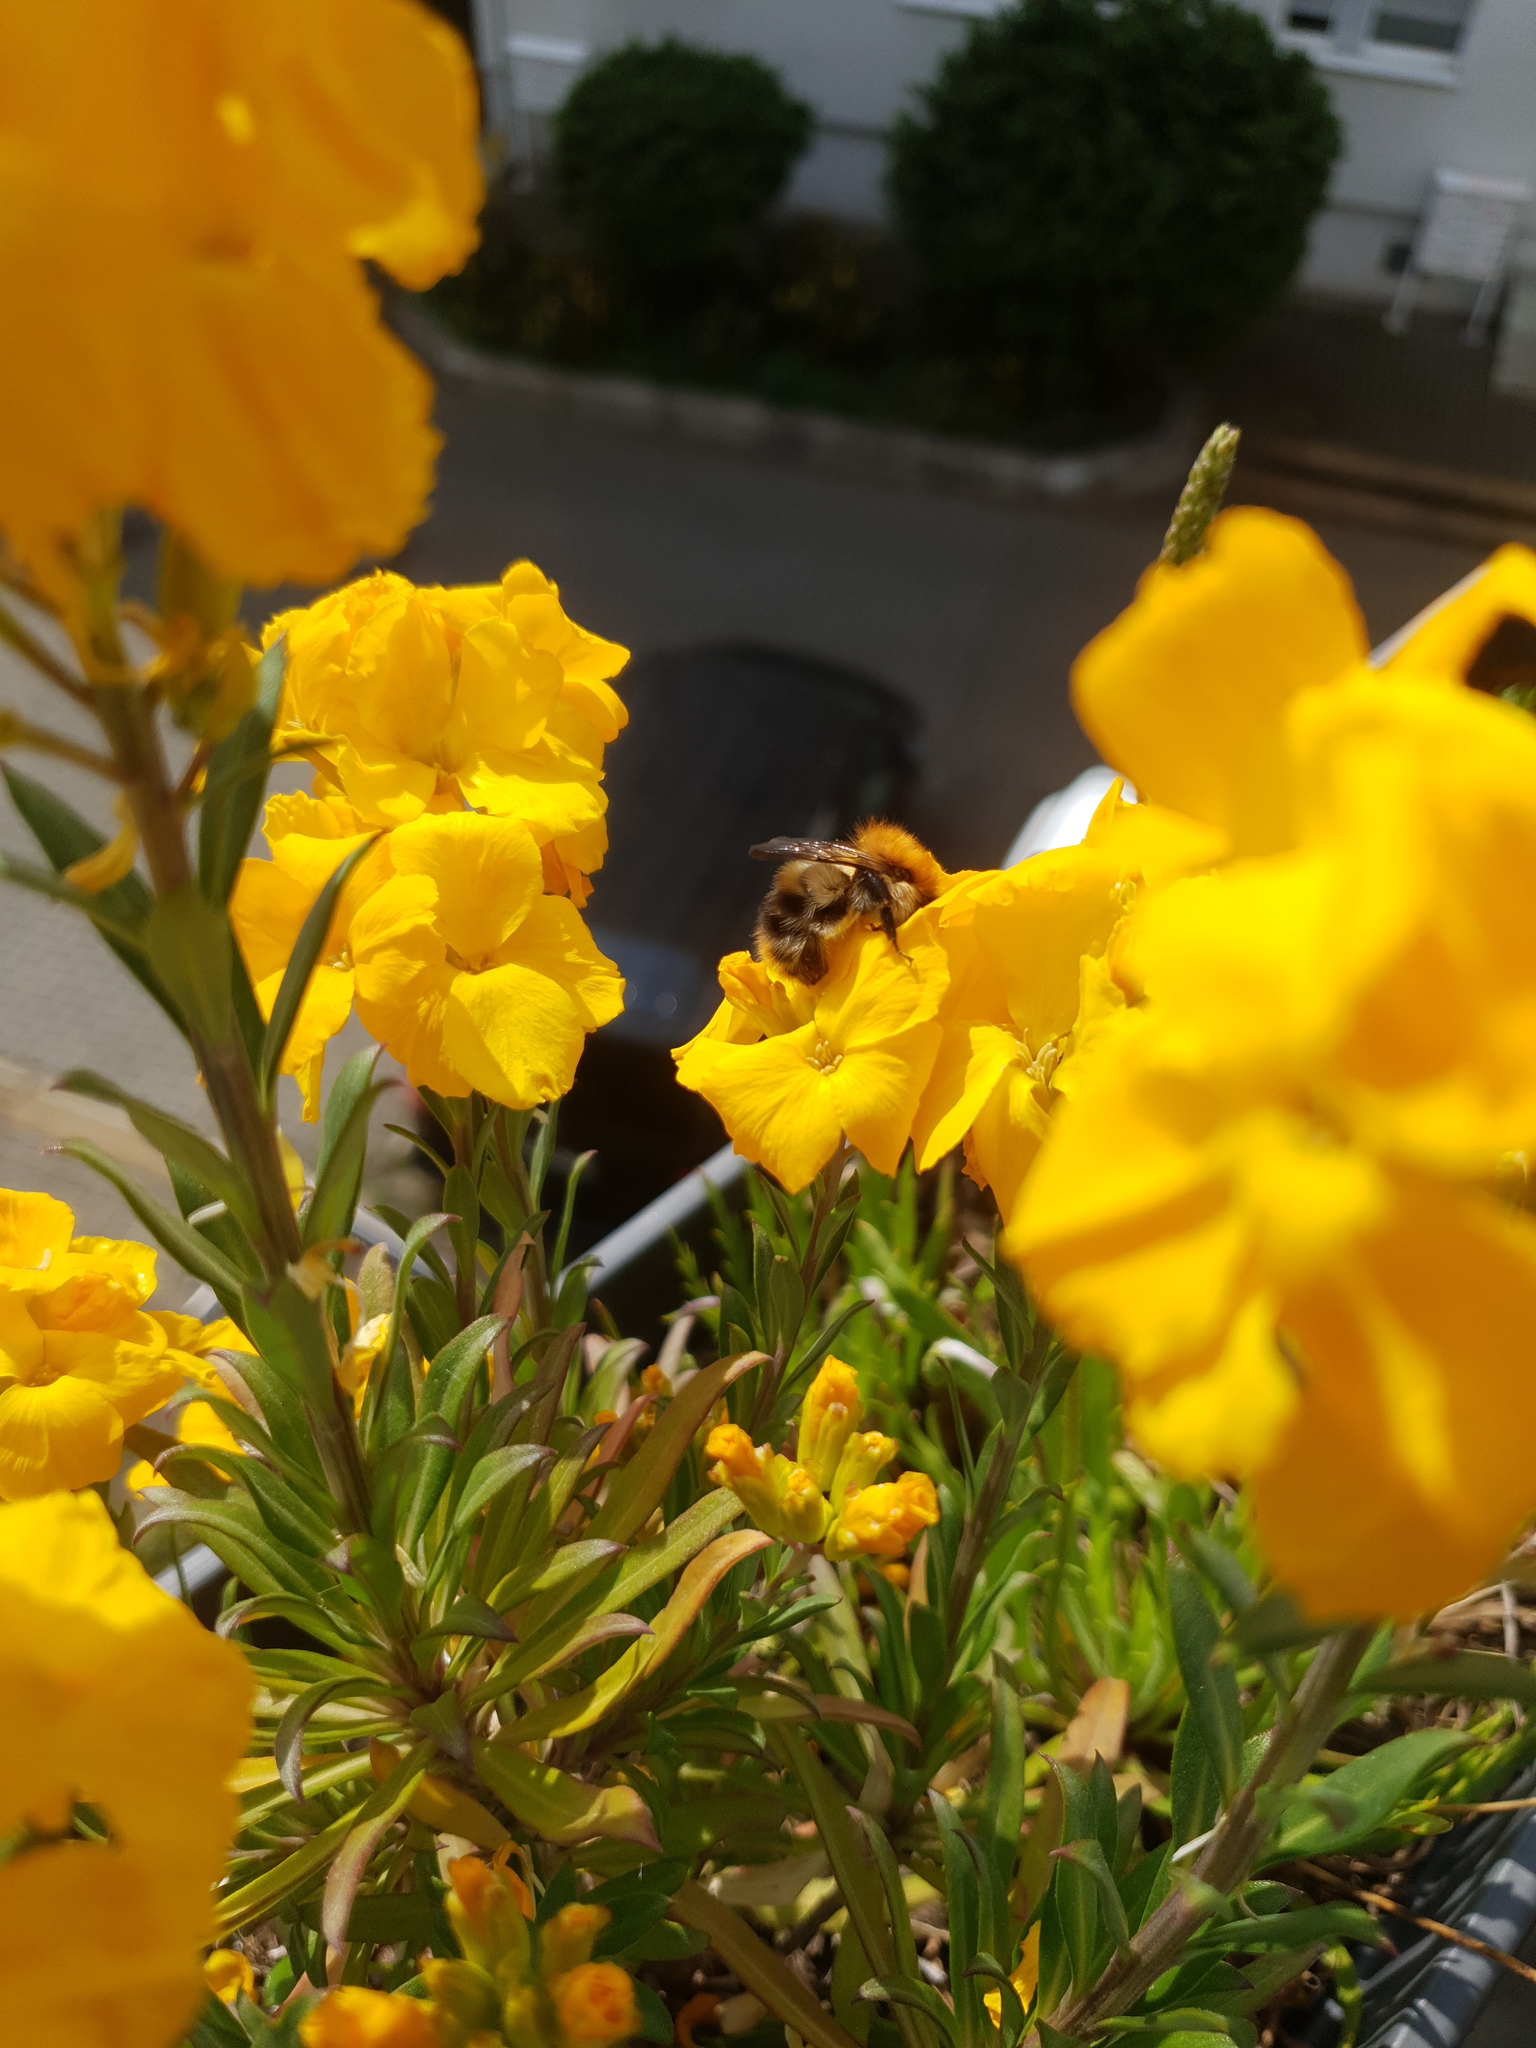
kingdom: Animalia
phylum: Arthropoda
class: Insecta
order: Hymenoptera
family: Apidae
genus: Bombus
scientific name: Bombus pascuorum
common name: Common carder bee
